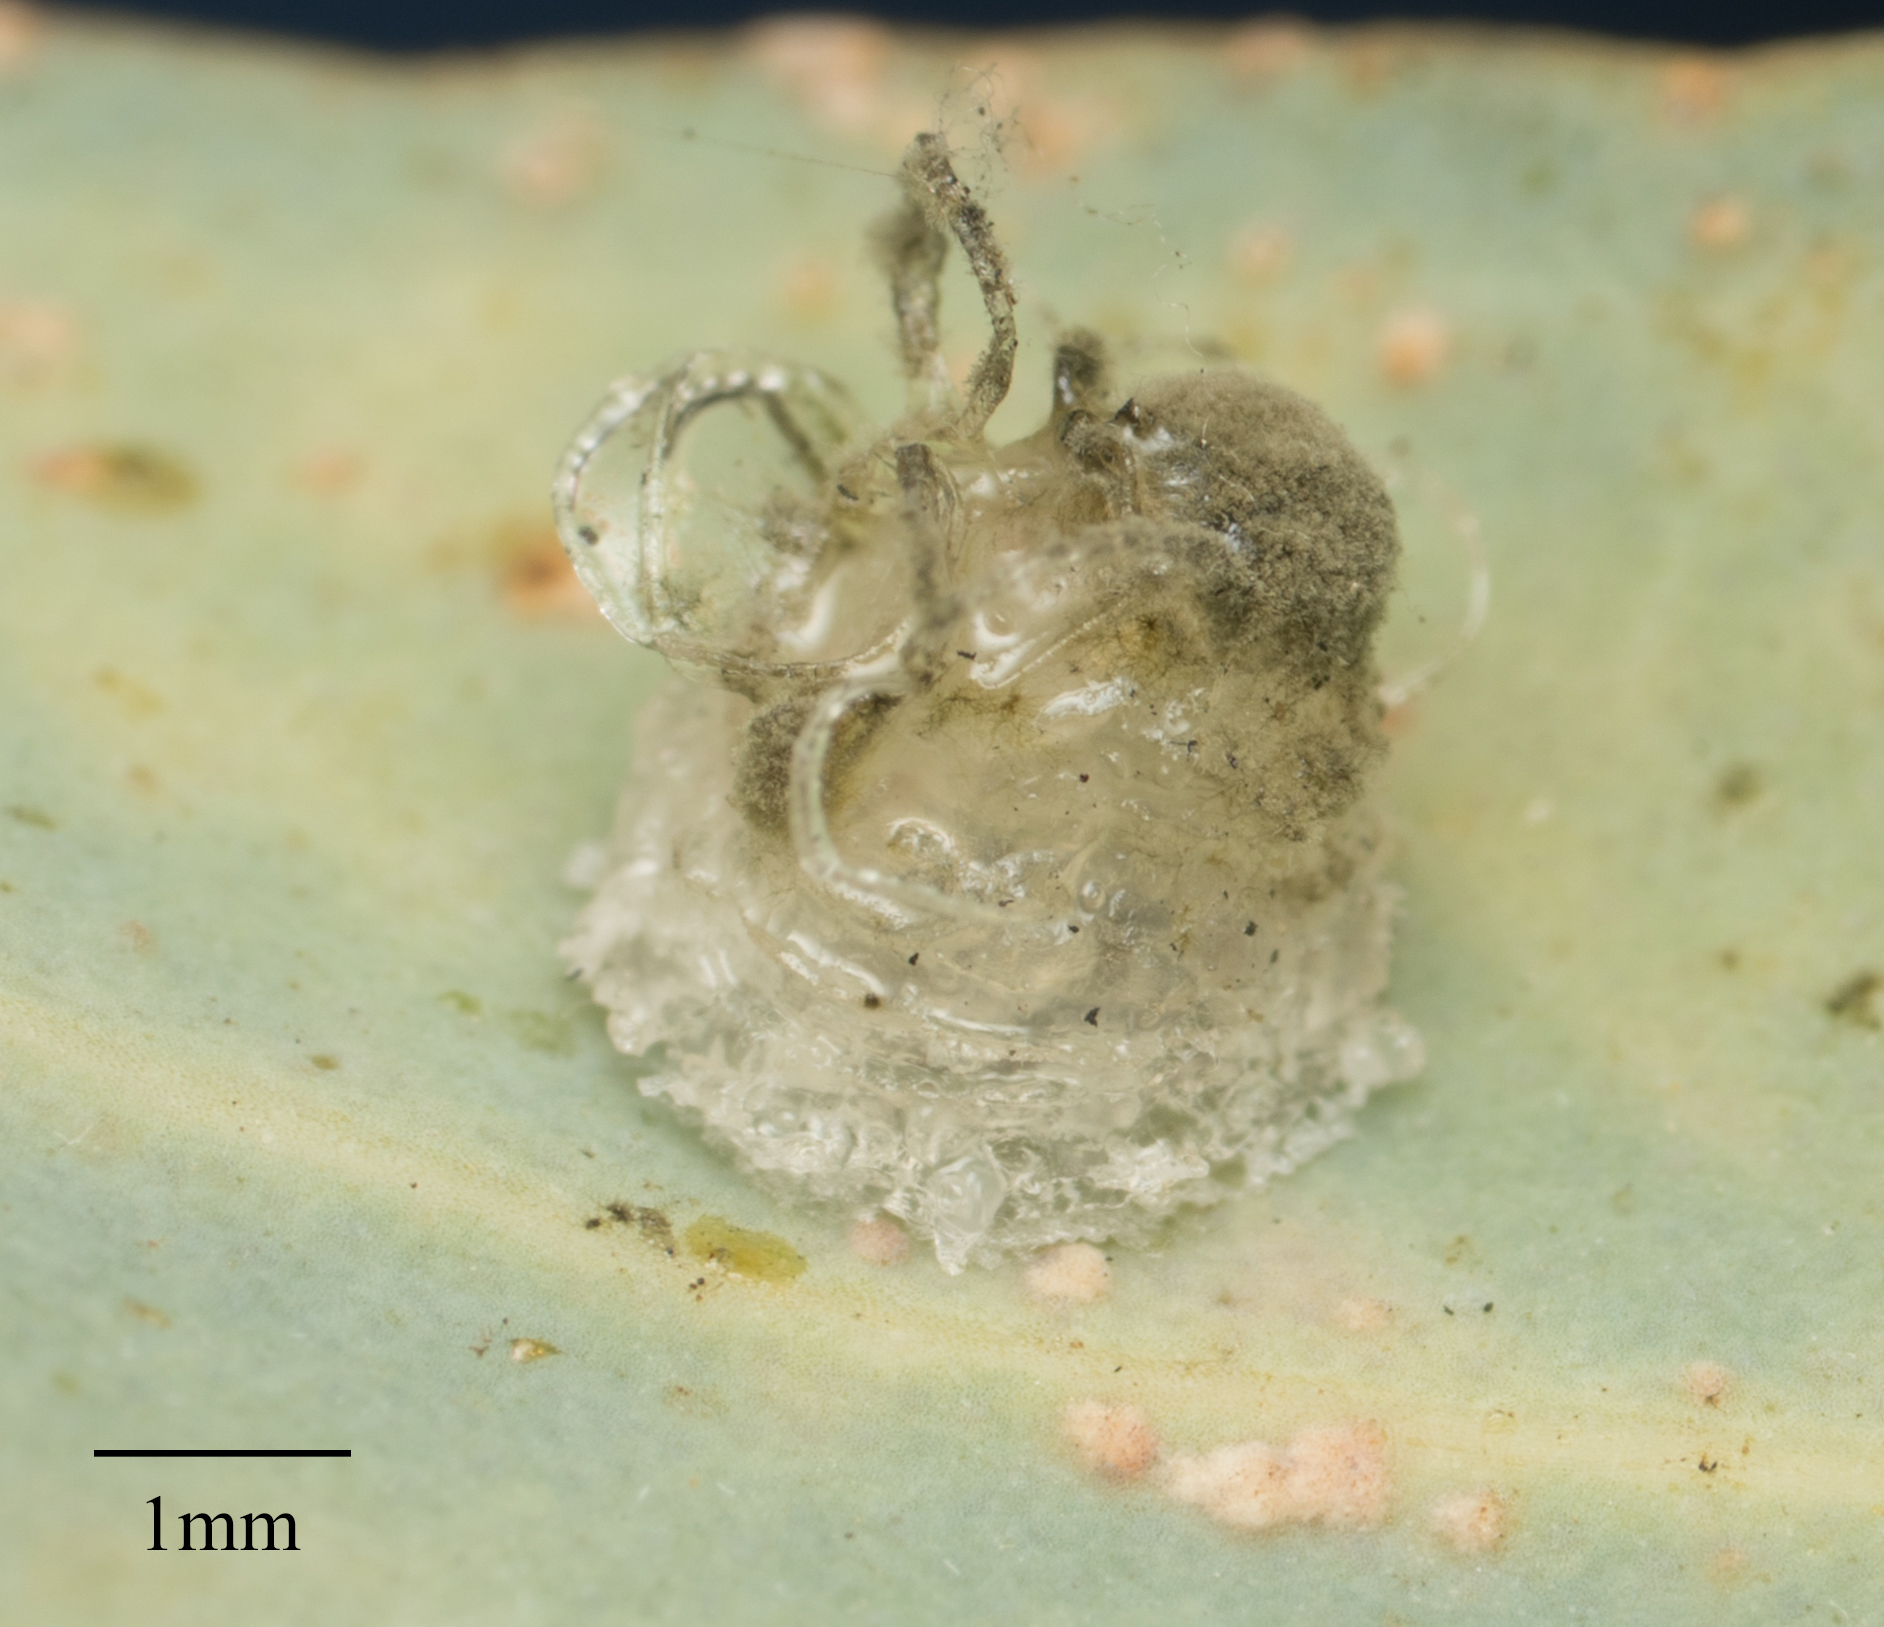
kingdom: Animalia
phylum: Arthropoda
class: Insecta
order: Hemiptera
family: Aphalaridae
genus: Glycaspis
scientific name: Glycaspis brimblecombei
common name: Red gum lerp psyllid
